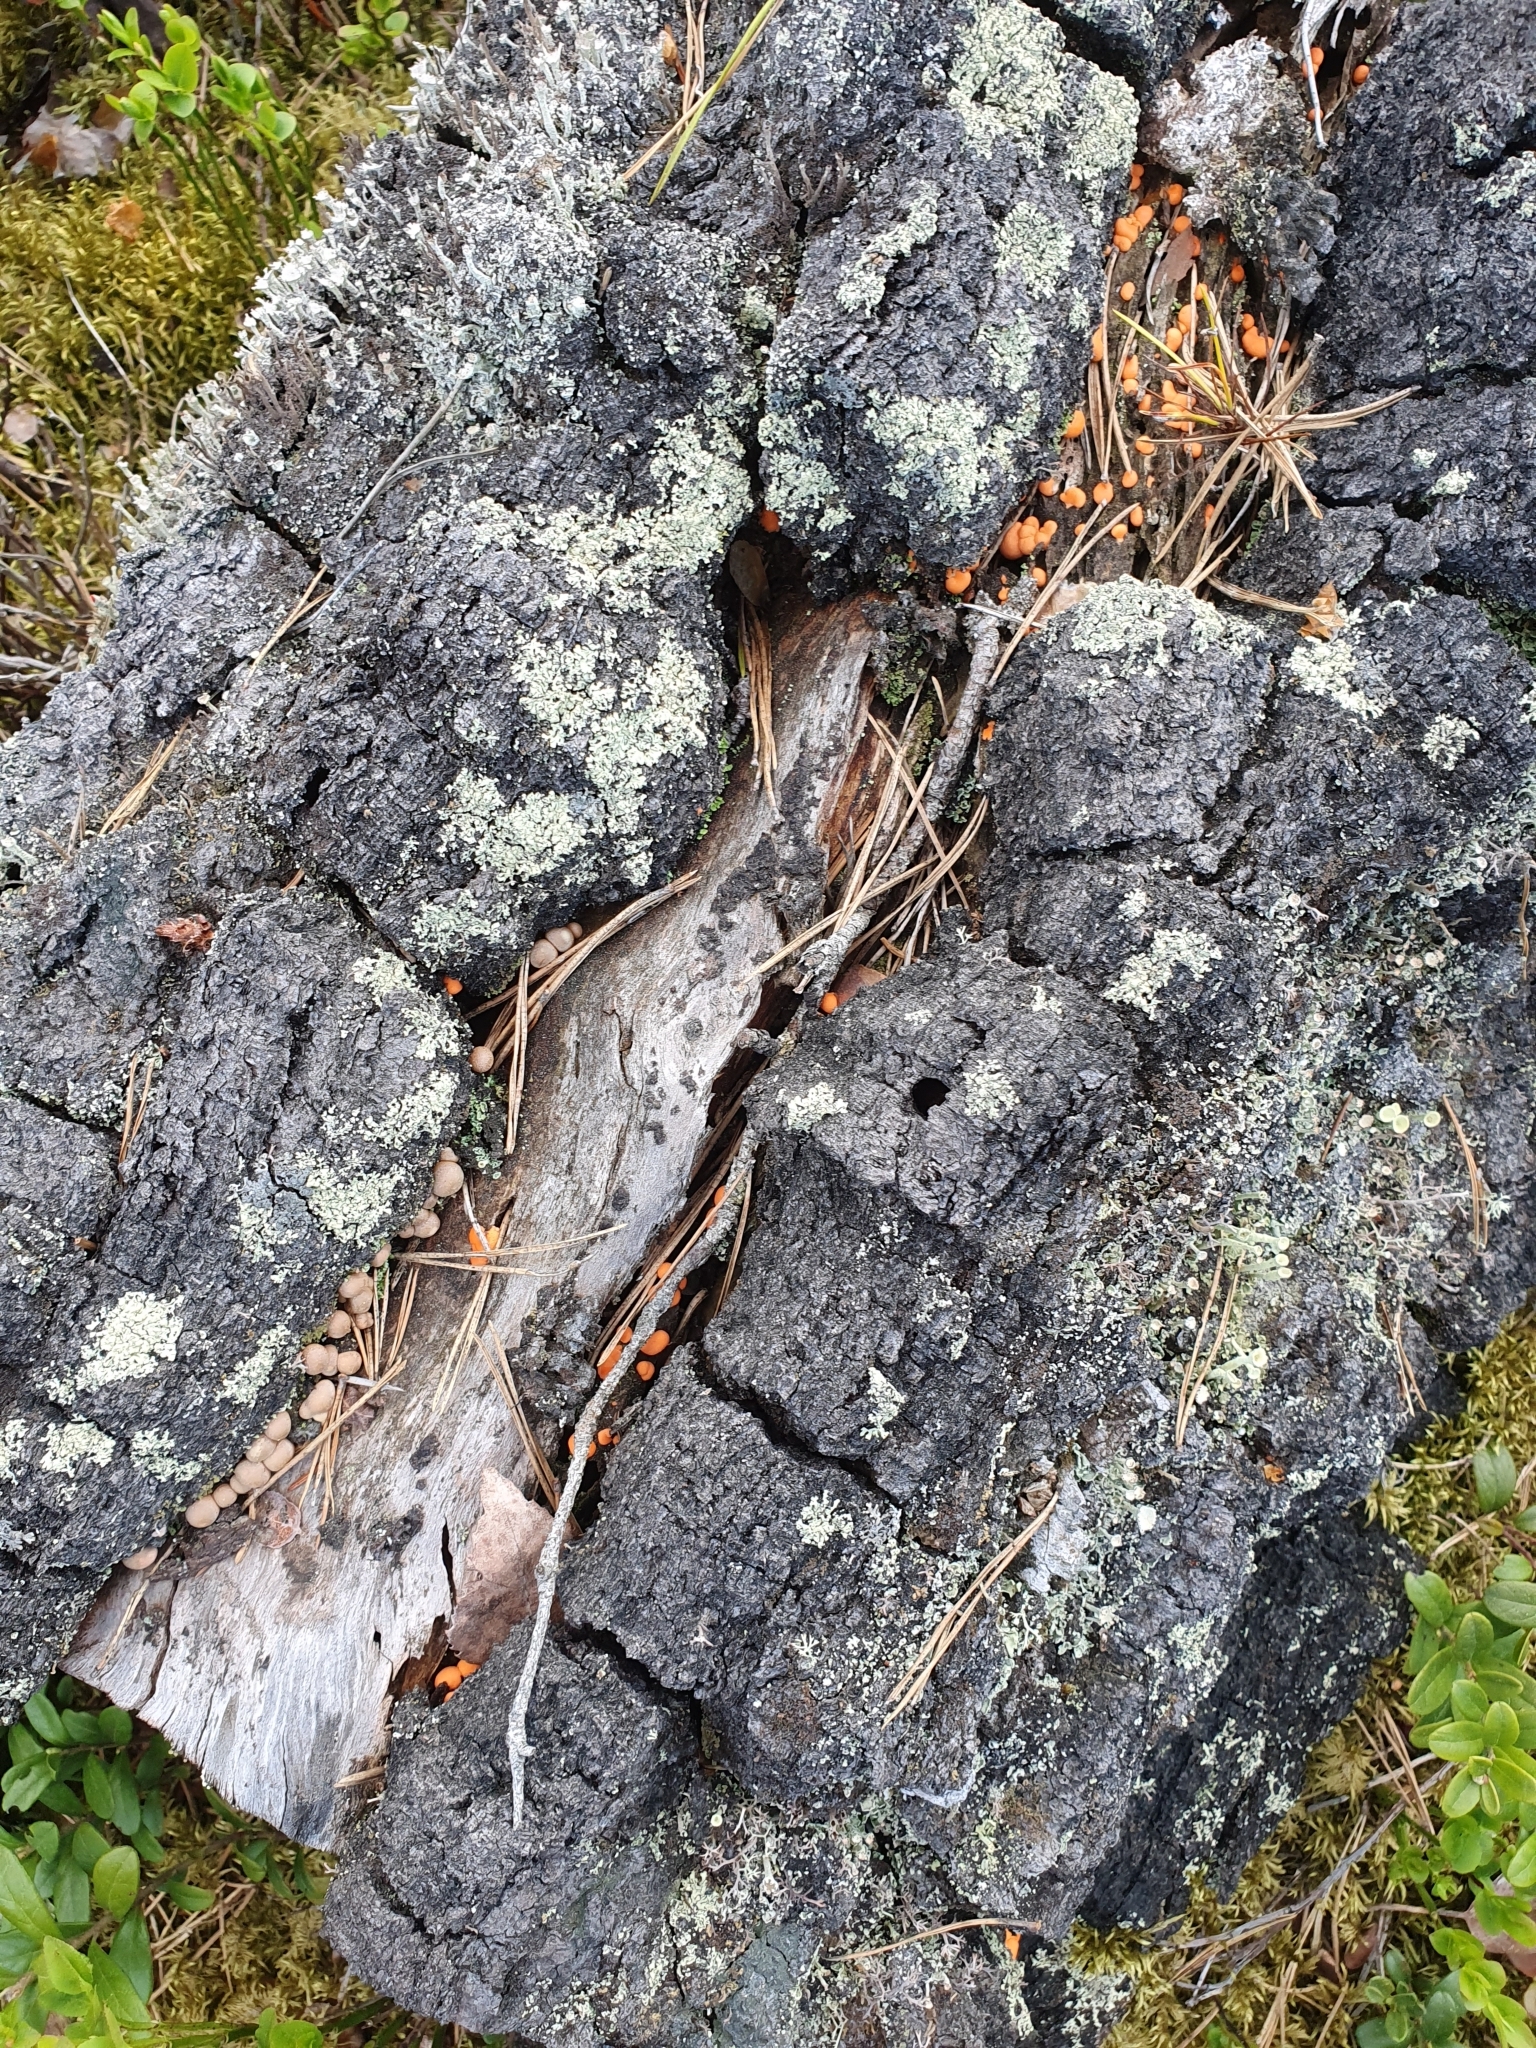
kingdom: Protozoa
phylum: Mycetozoa
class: Myxomycetes
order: Cribrariales
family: Tubiferaceae
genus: Lycogala
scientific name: Lycogala epidendrum
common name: Wolf's milk
